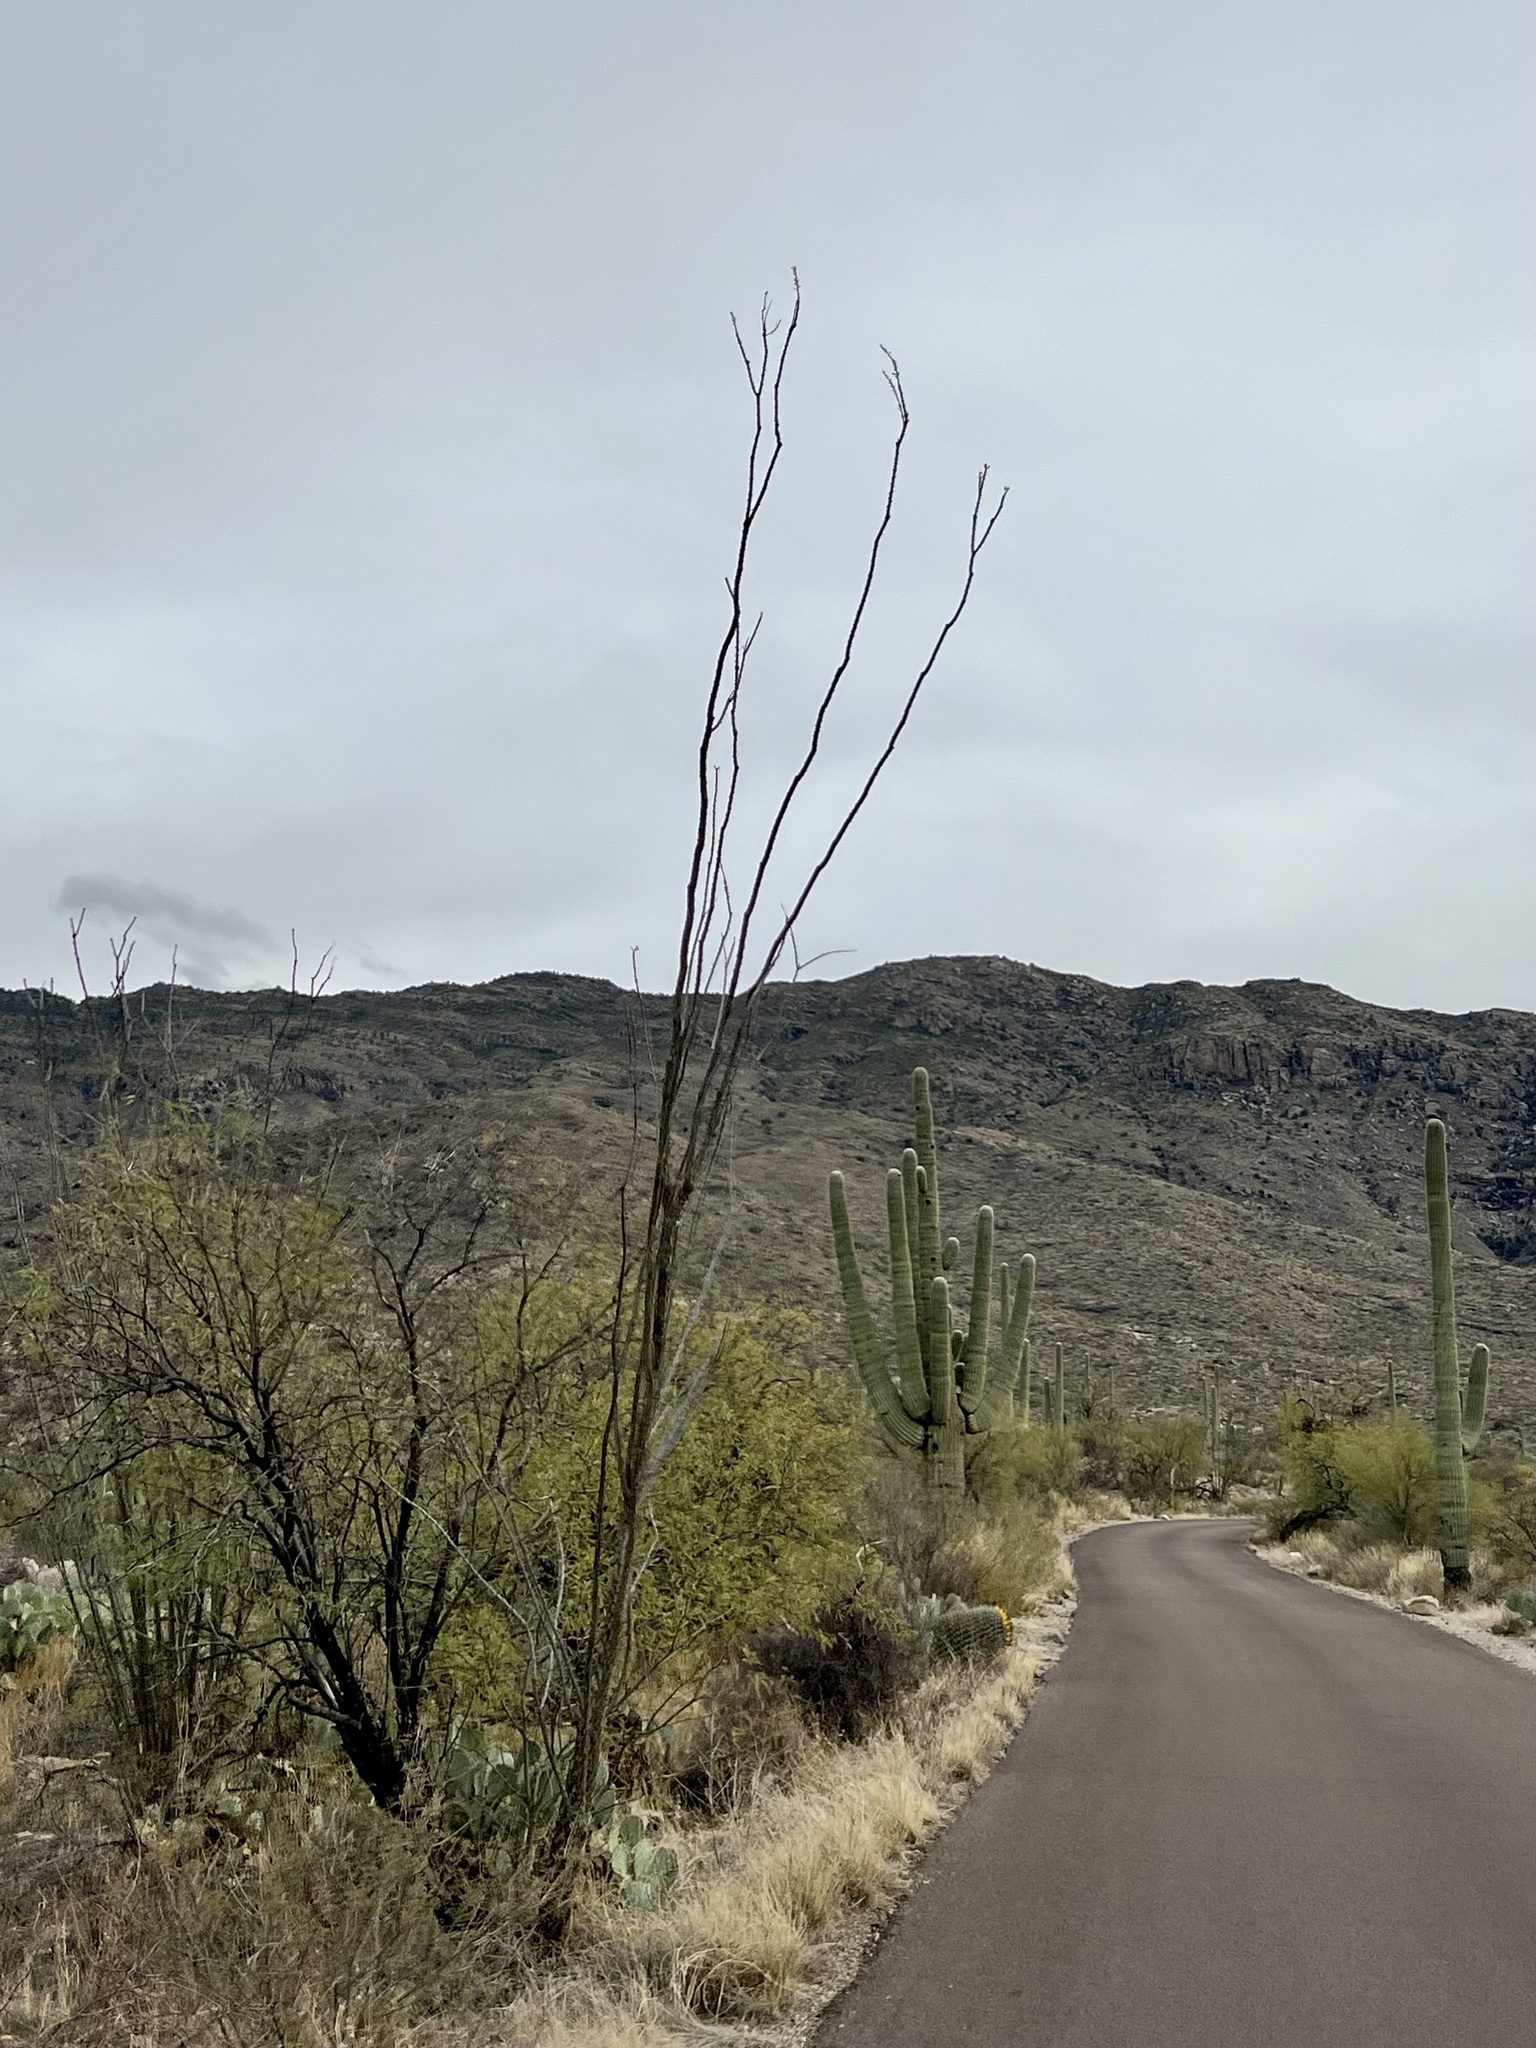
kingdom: Plantae
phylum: Tracheophyta
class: Magnoliopsida
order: Ericales
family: Fouquieriaceae
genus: Fouquieria
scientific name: Fouquieria splendens
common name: Vine-cactus
